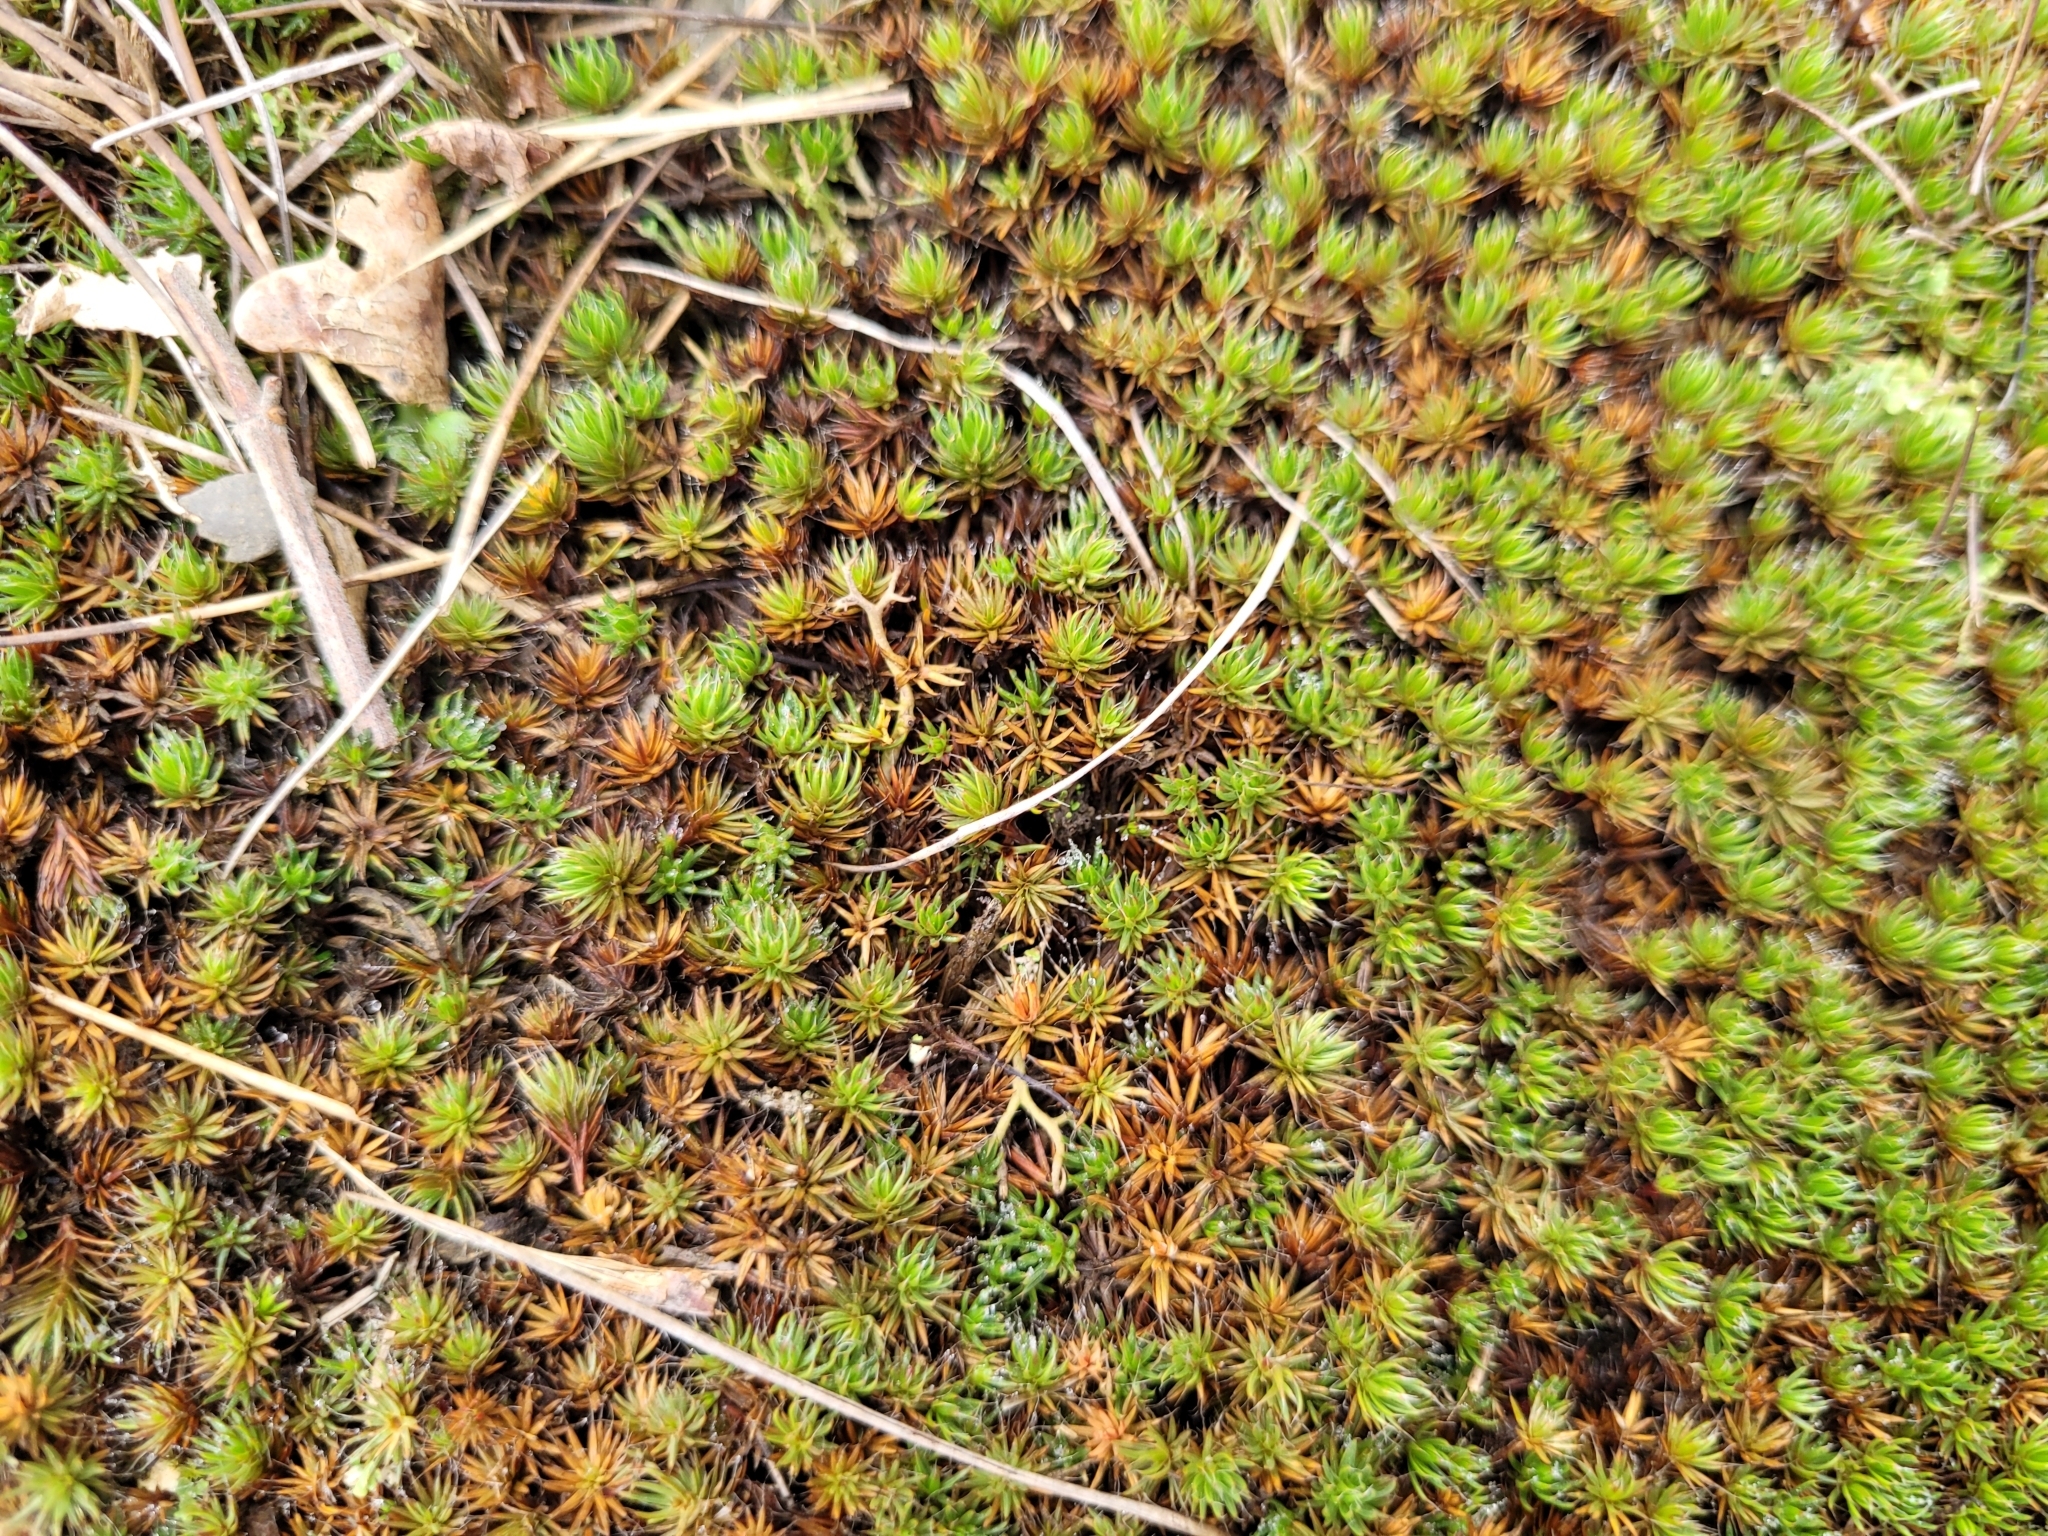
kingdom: Plantae
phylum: Bryophyta
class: Polytrichopsida
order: Polytrichales
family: Polytrichaceae
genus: Polytrichum
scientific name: Polytrichum piliferum
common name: Bristly haircap
